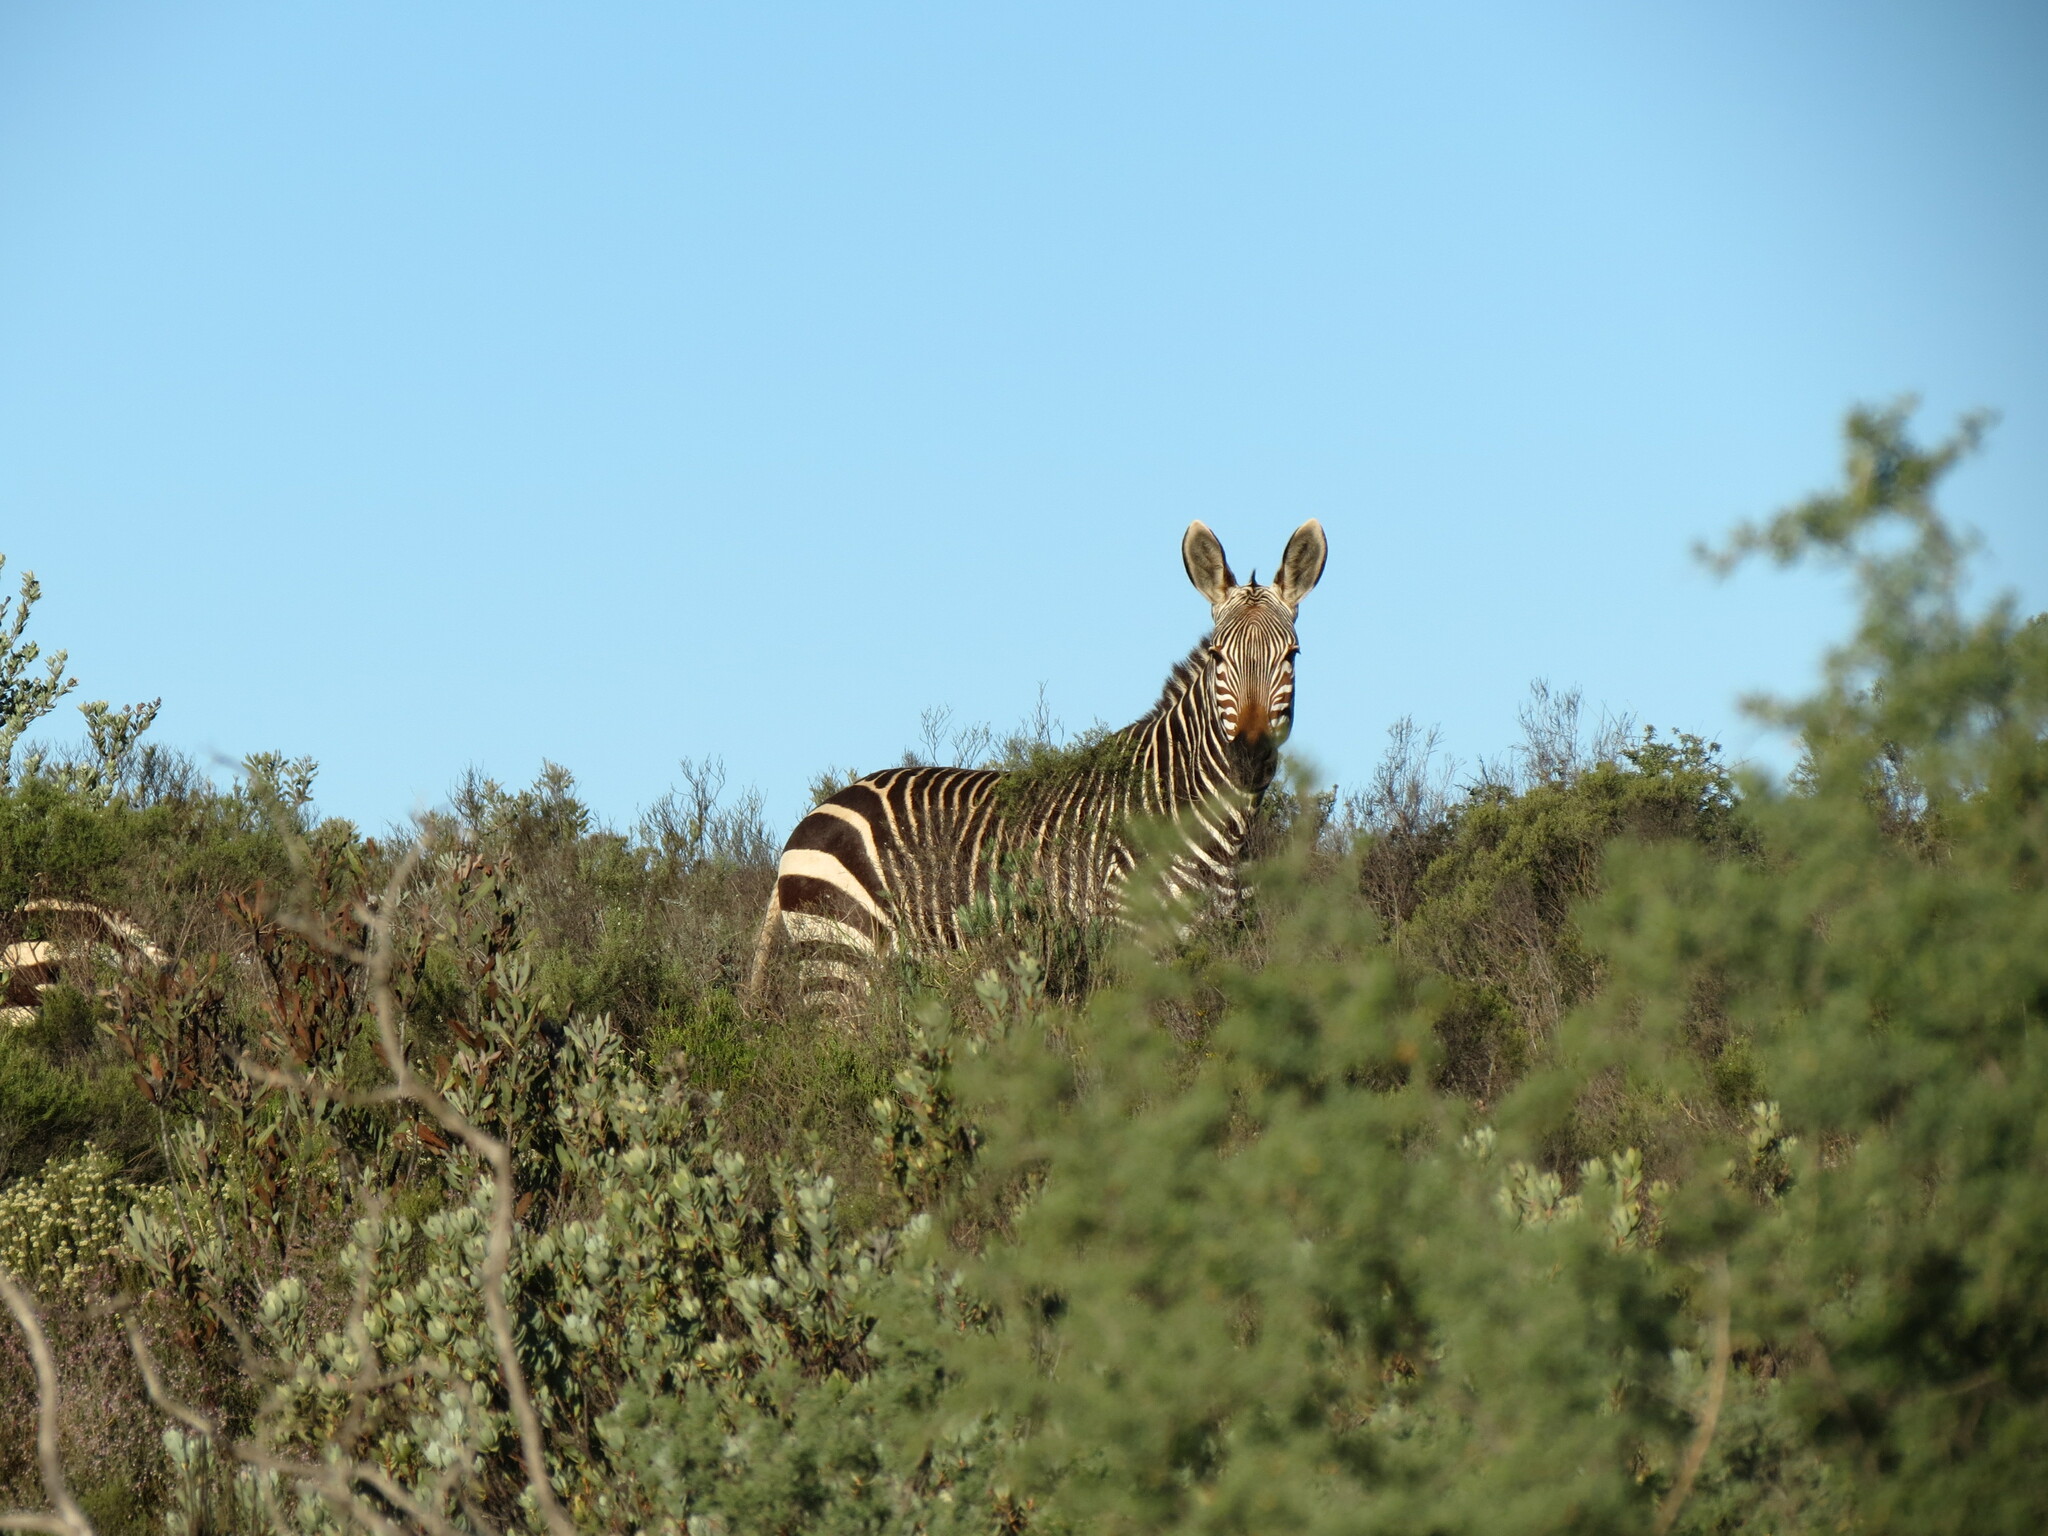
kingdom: Animalia
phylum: Chordata
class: Mammalia
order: Perissodactyla
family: Equidae
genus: Equus
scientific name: Equus zebra
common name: Mountain zebra
